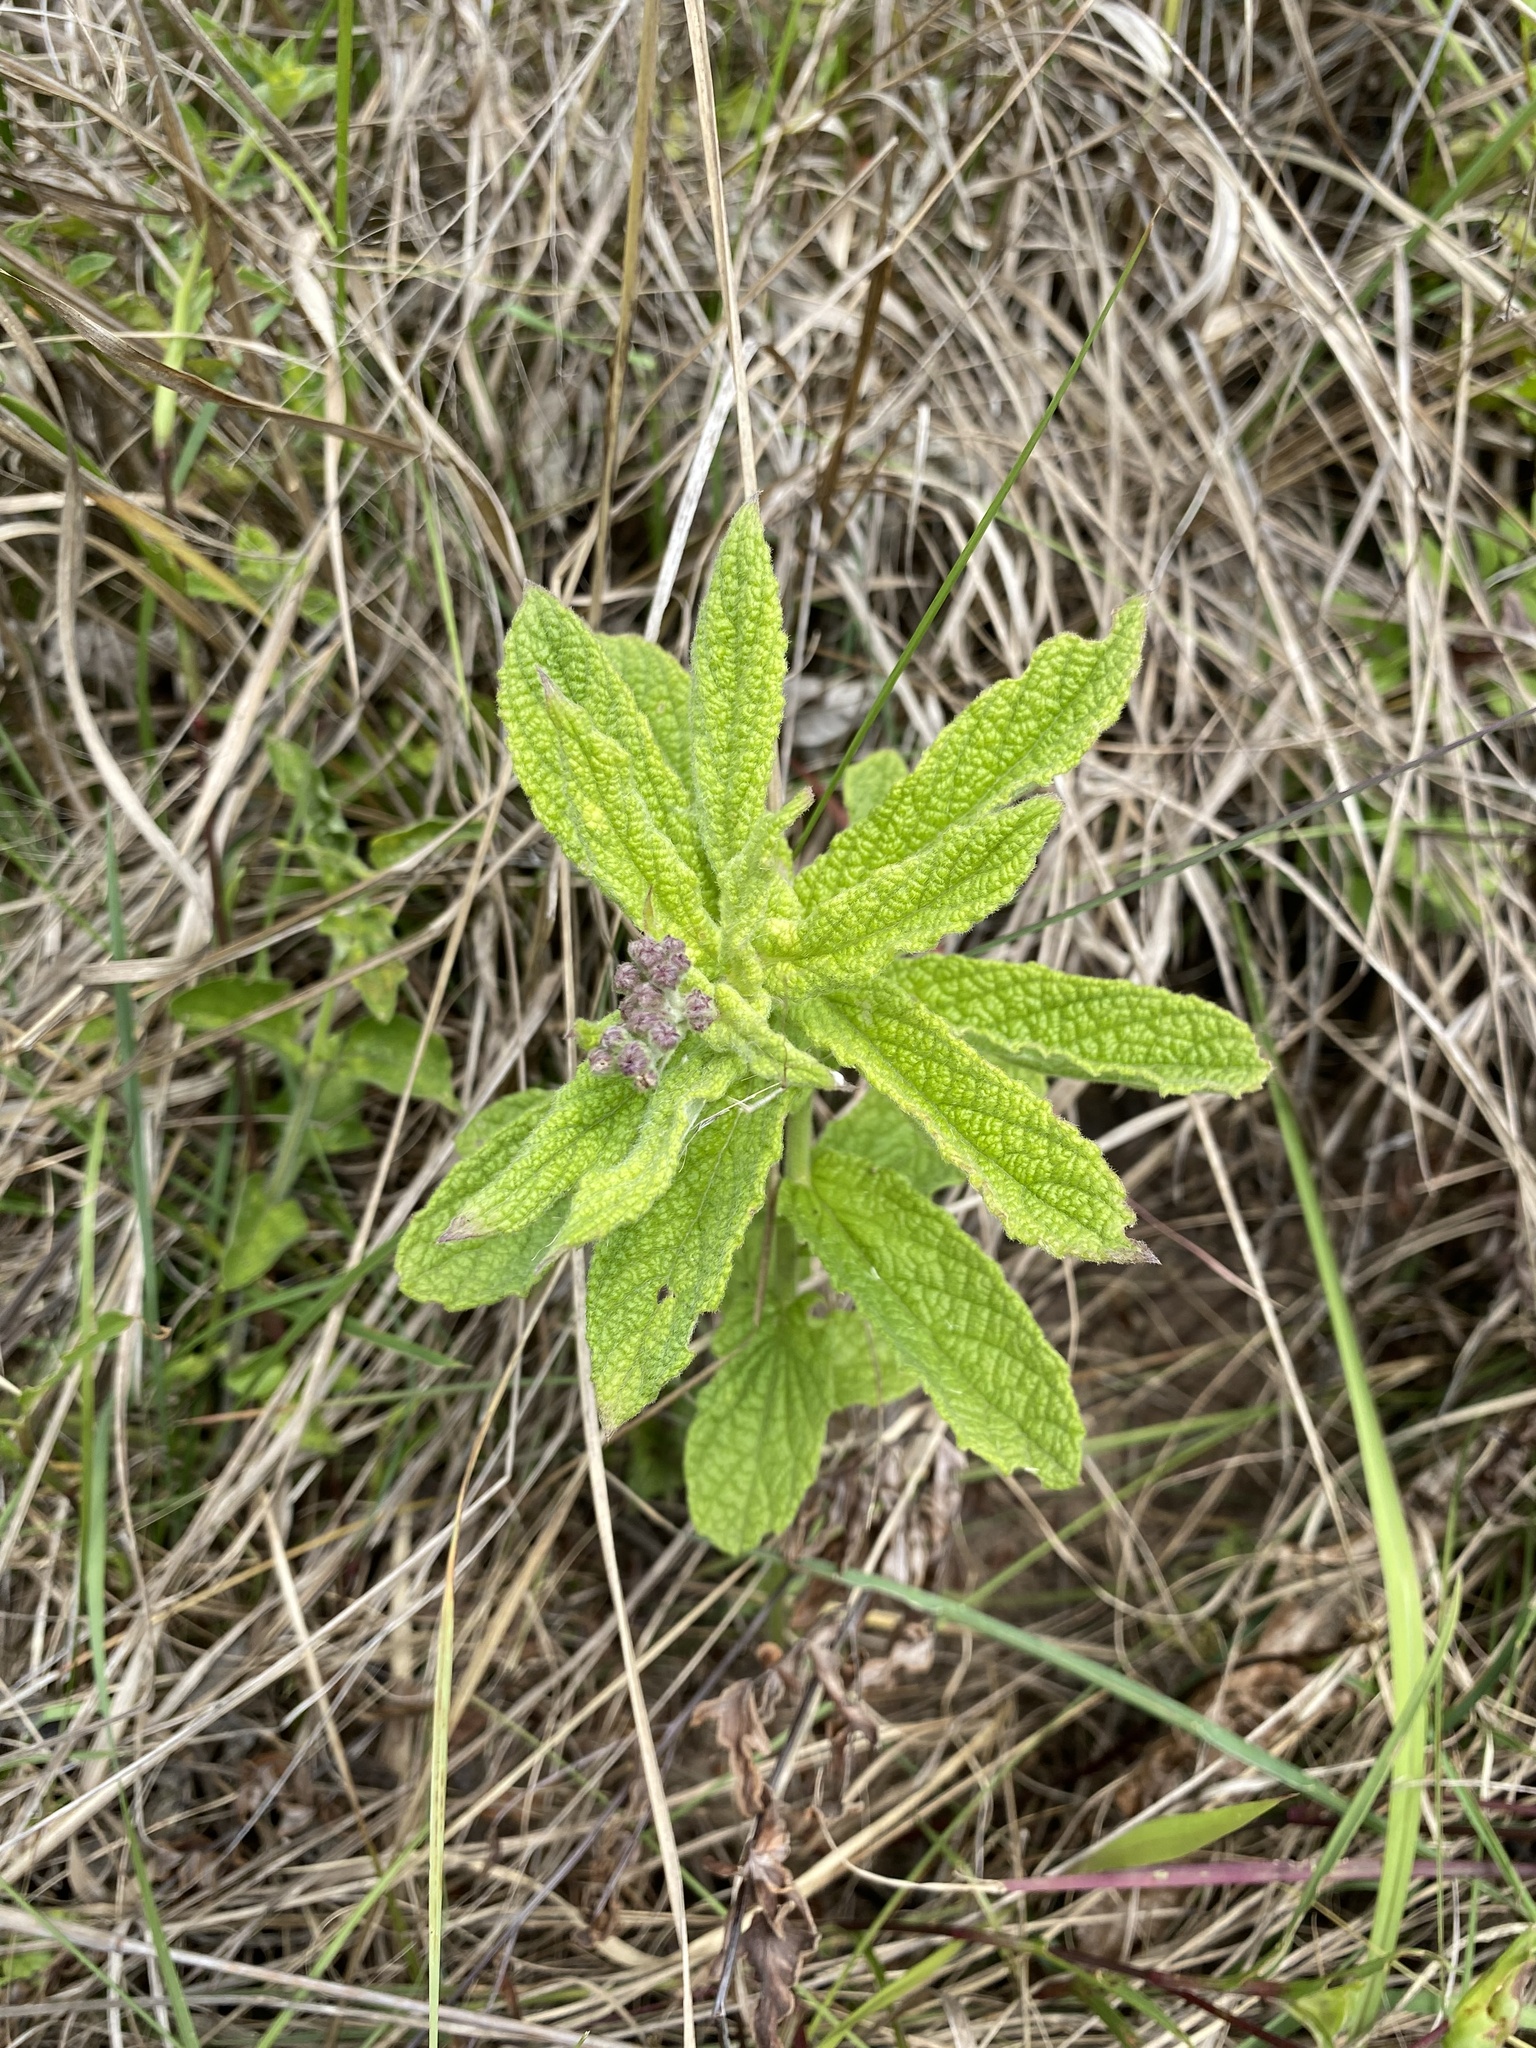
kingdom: Plantae
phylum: Tracheophyta
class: Magnoliopsida
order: Asterales
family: Asteraceae
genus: Hilliardiella
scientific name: Hilliardiella hirsuta
